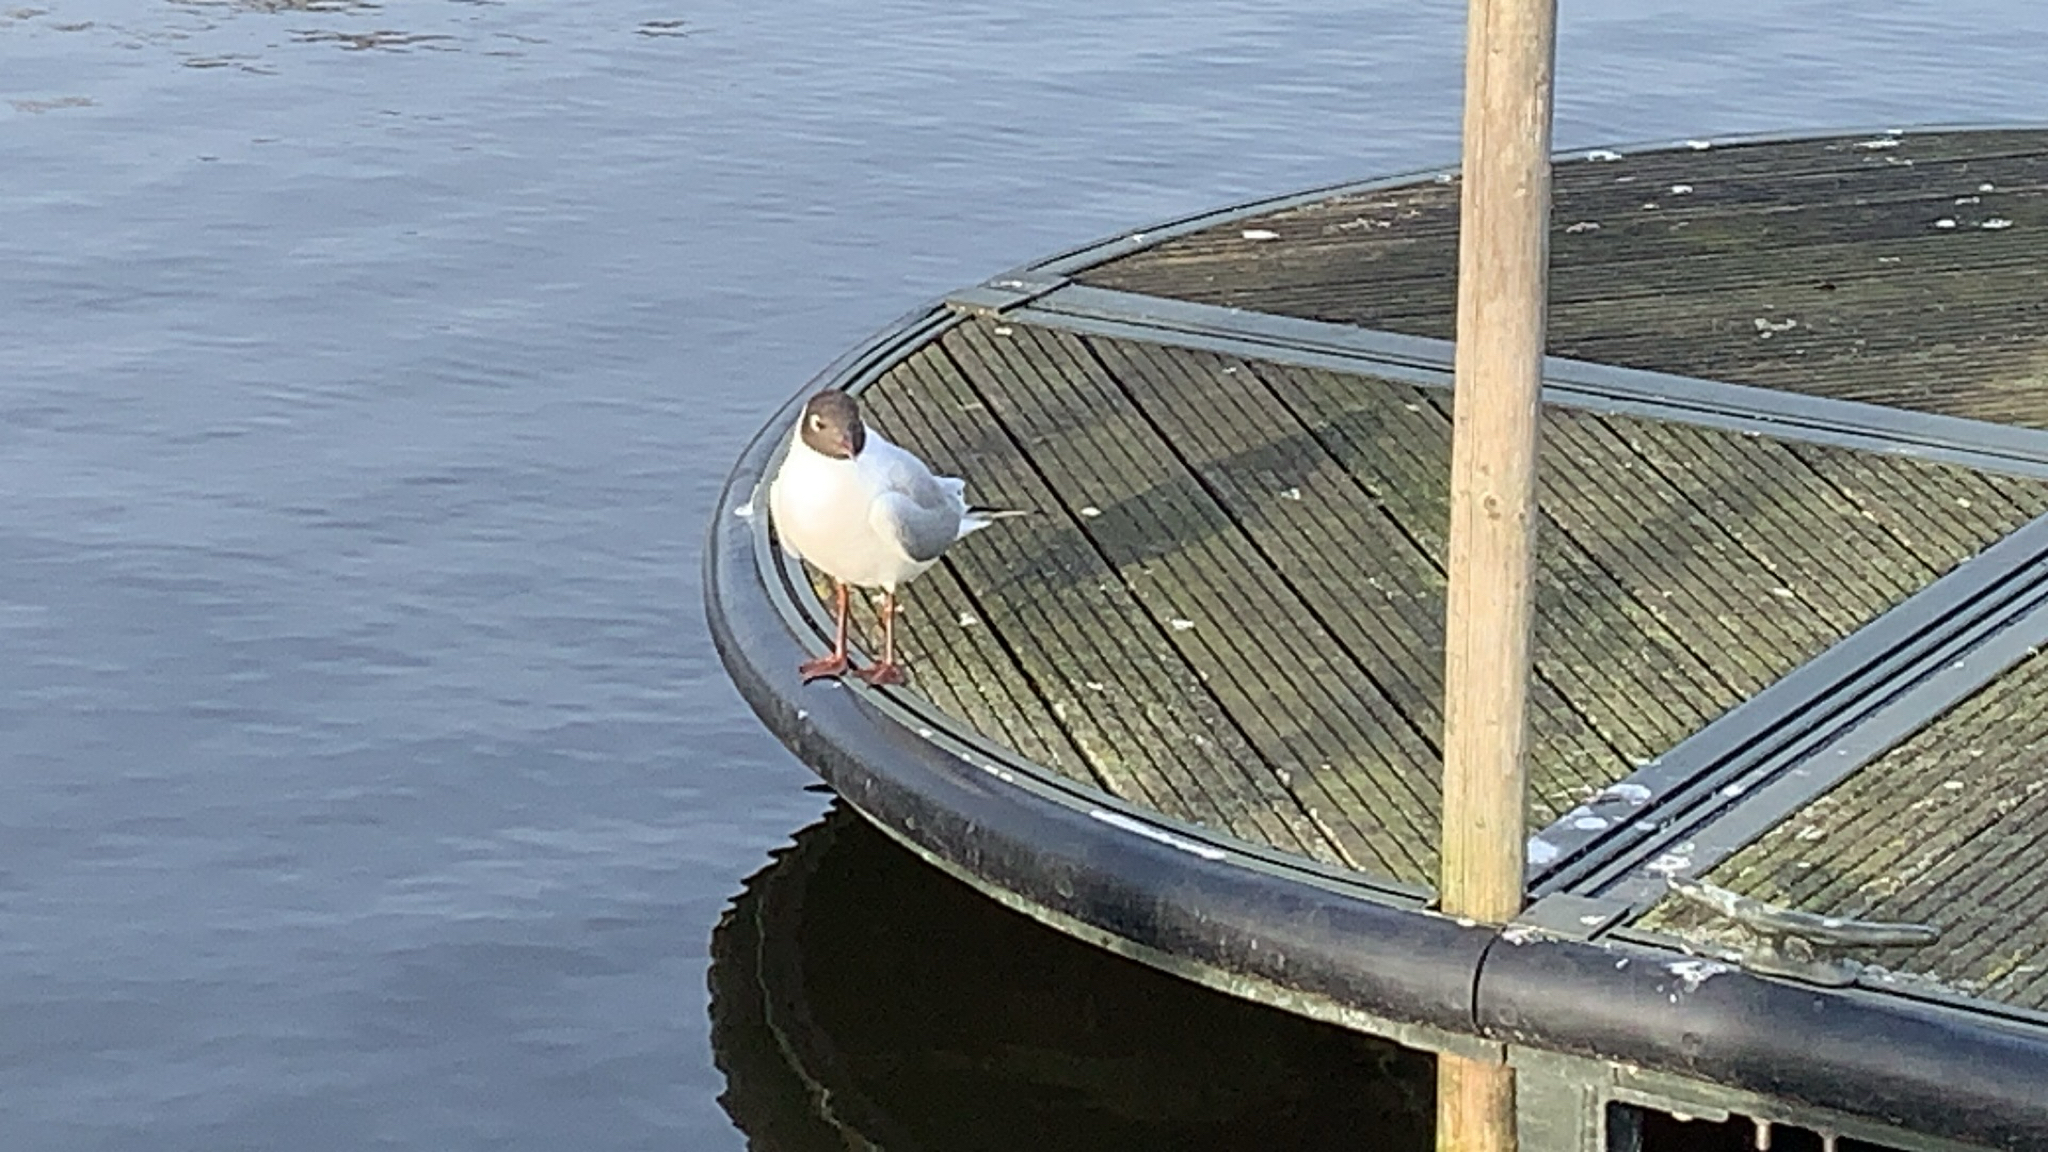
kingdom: Animalia
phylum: Chordata
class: Aves
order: Charadriiformes
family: Laridae
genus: Chroicocephalus
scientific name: Chroicocephalus ridibundus
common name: Black-headed gull
